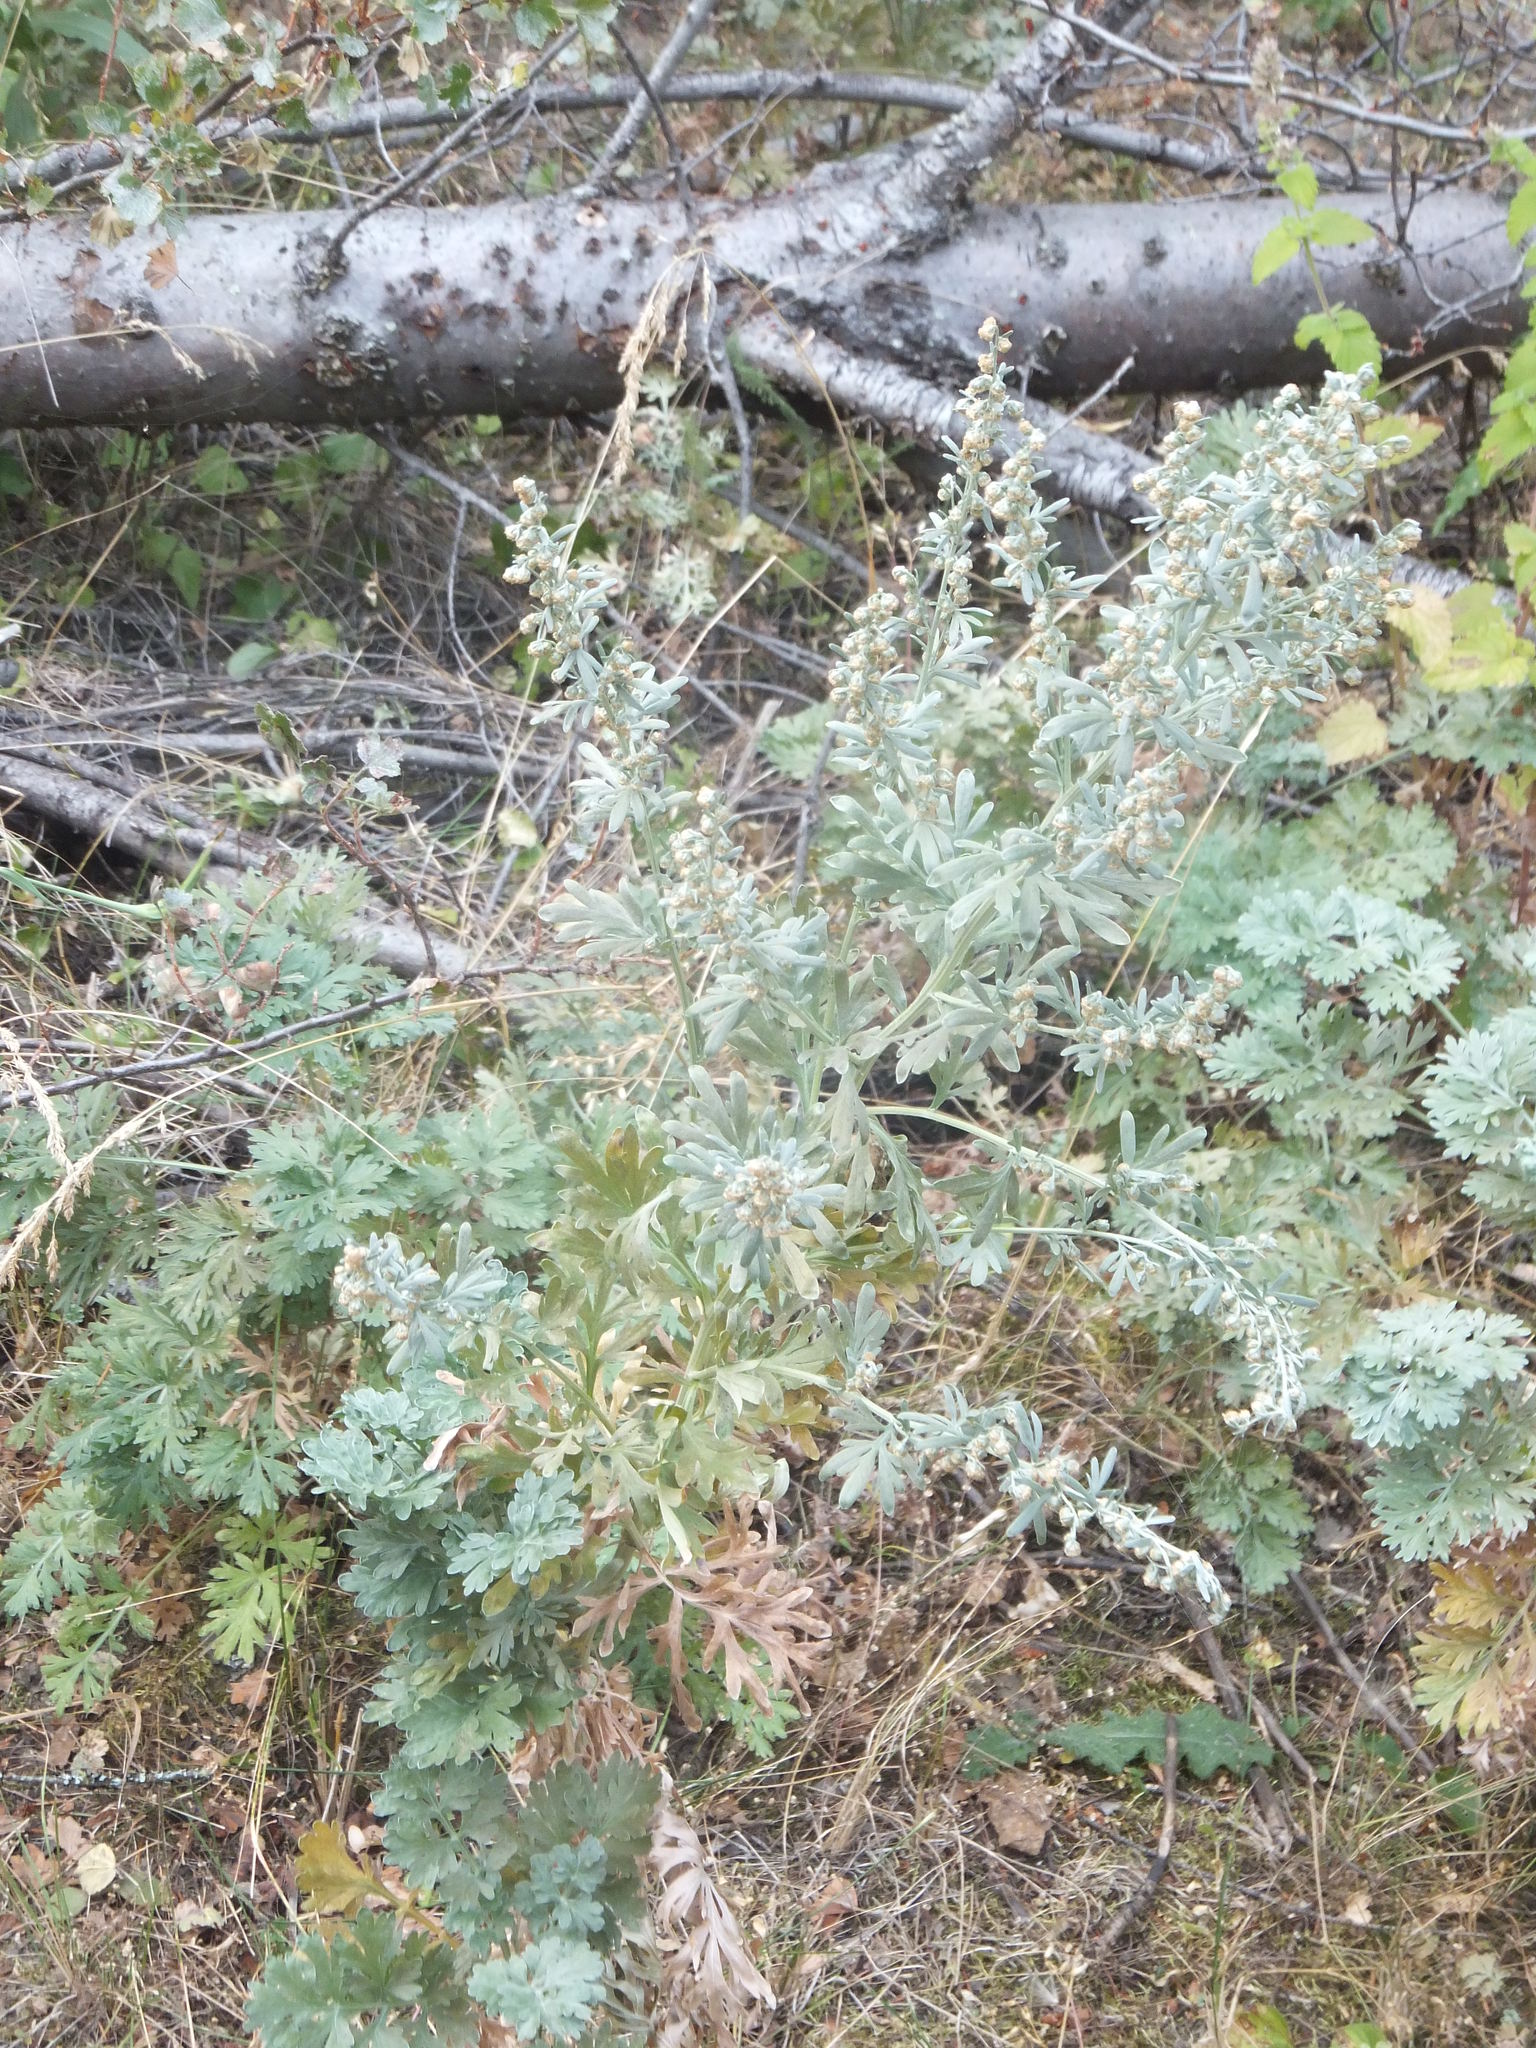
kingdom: Plantae
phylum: Tracheophyta
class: Magnoliopsida
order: Asterales
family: Asteraceae
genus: Artemisia
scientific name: Artemisia absinthium
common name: Wormwood
